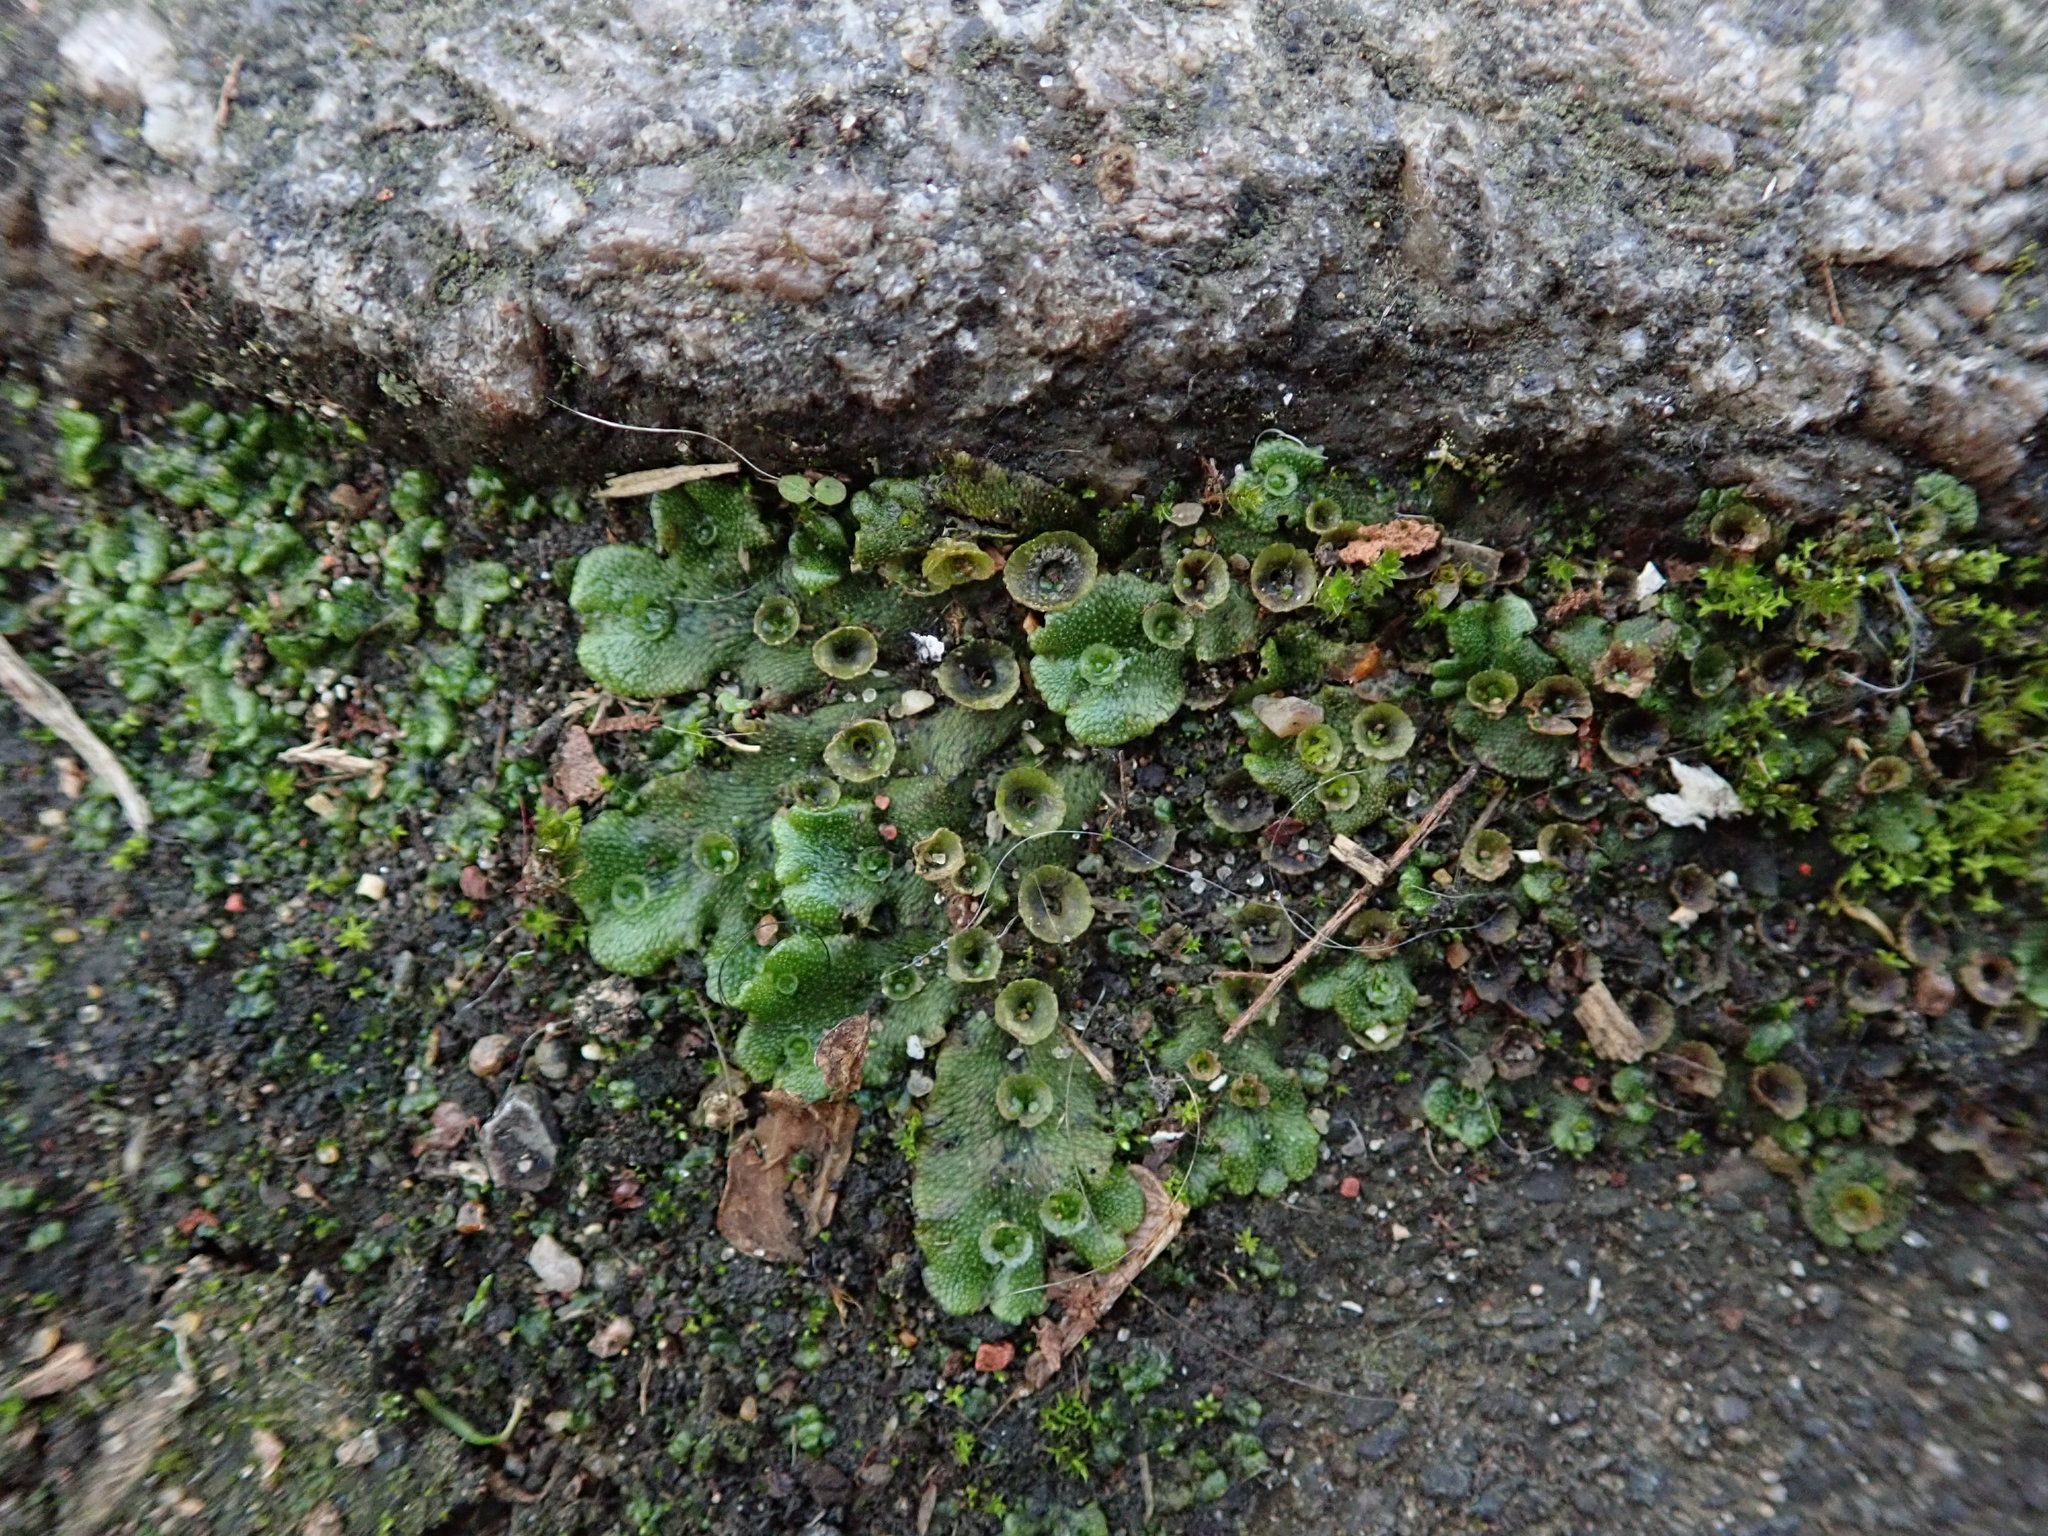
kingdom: Plantae
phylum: Marchantiophyta
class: Marchantiopsida
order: Marchantiales
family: Marchantiaceae
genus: Marchantia
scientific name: Marchantia polymorpha
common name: Common liverwort
